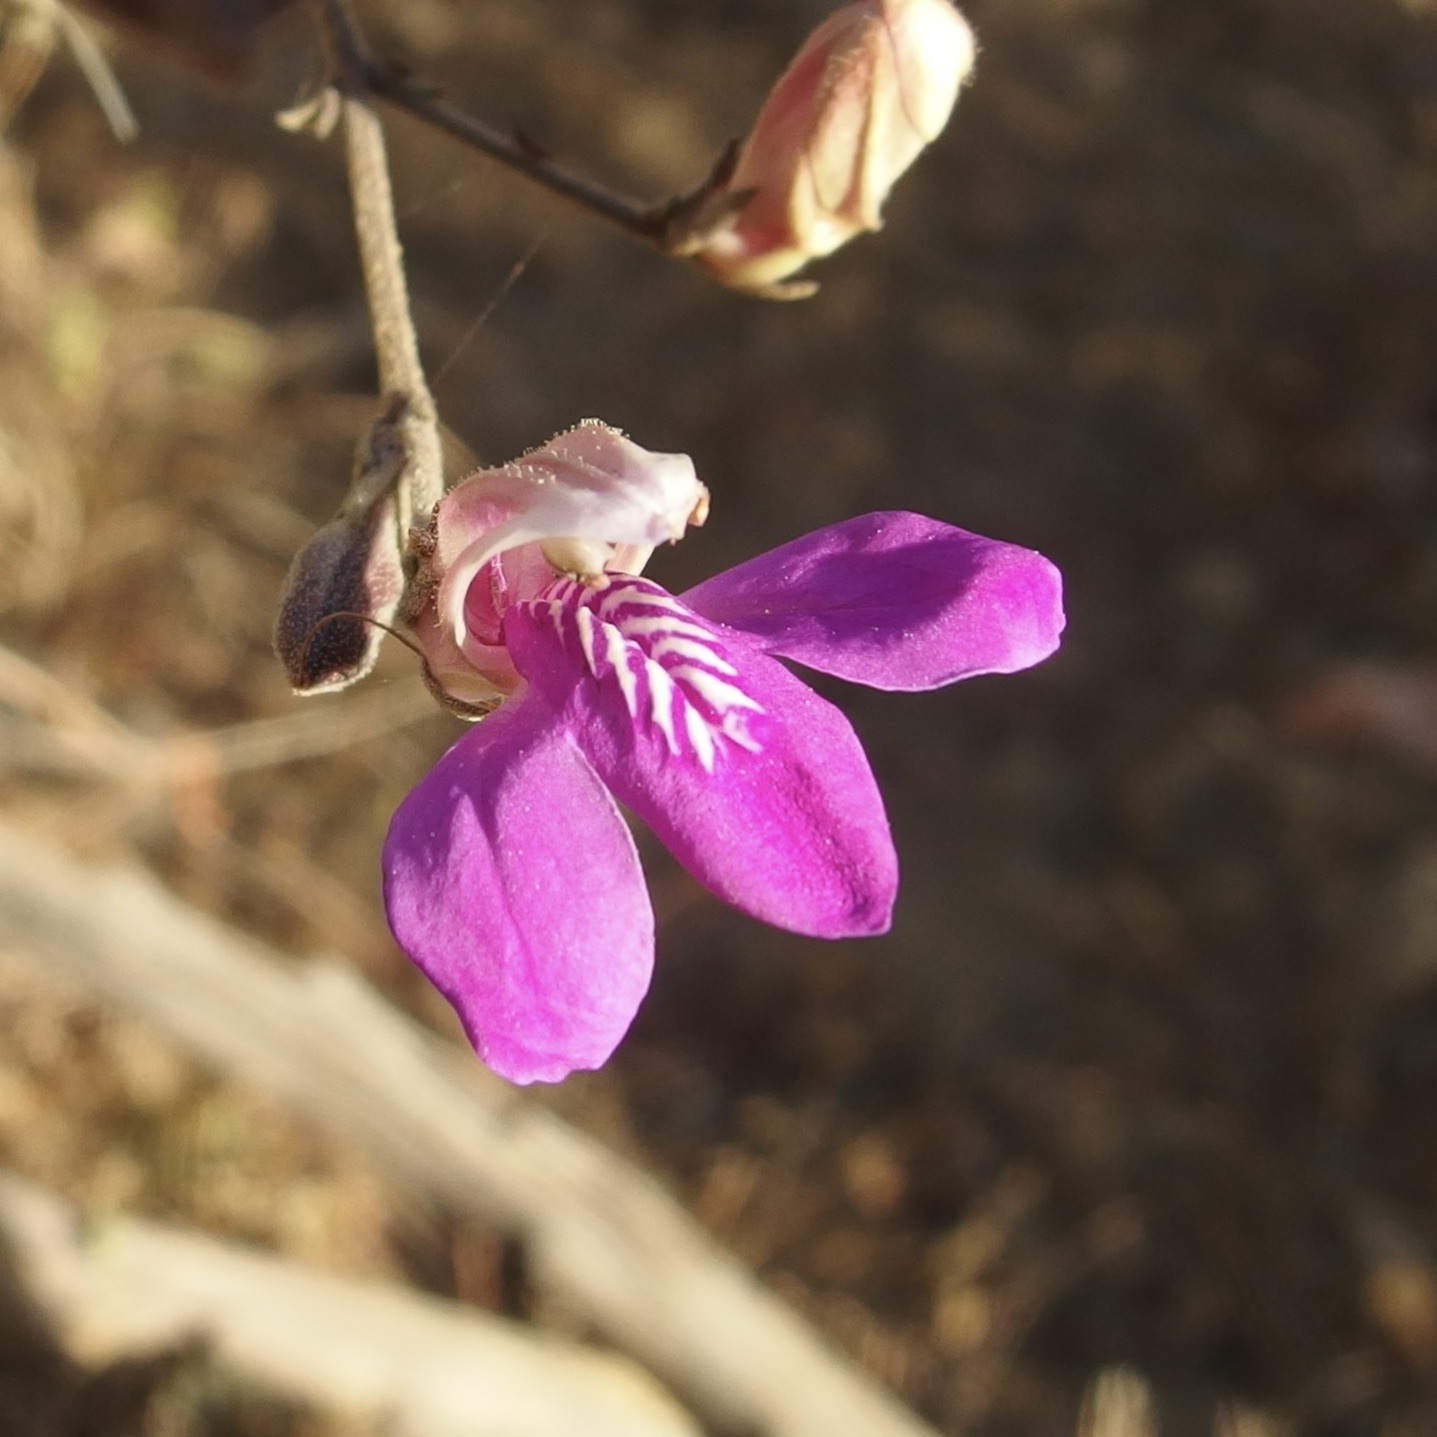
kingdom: Plantae
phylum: Tracheophyta
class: Magnoliopsida
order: Lamiales
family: Acanthaceae
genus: Justicia
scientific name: Justicia insolita
